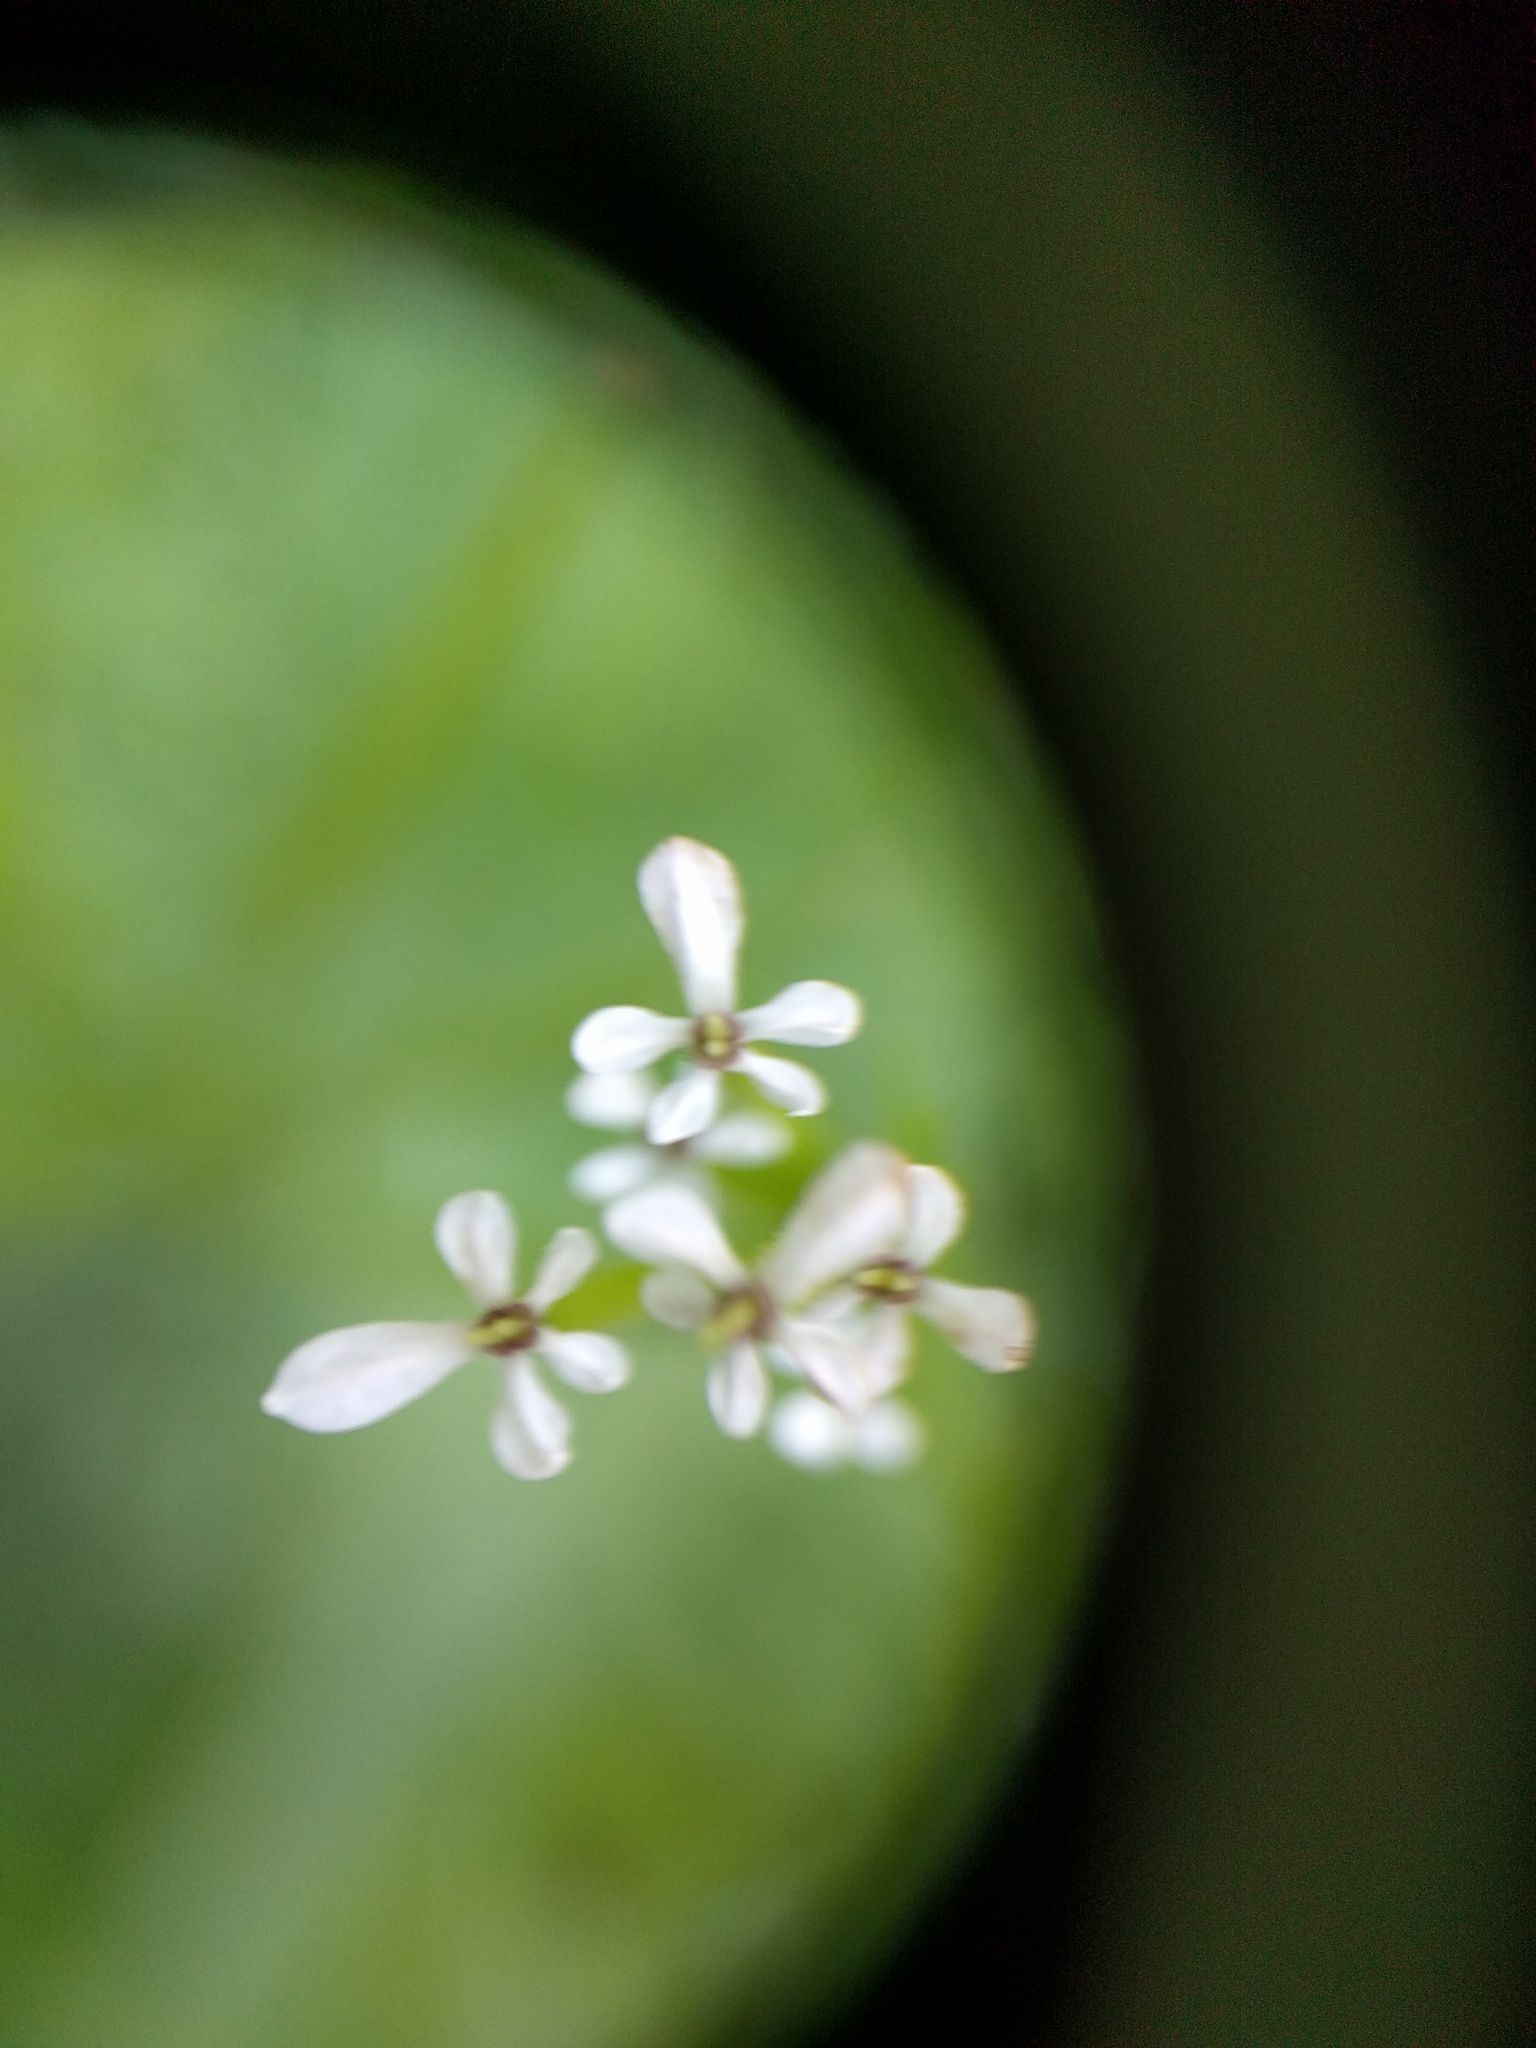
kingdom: Plantae
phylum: Tracheophyta
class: Magnoliopsida
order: Apiales
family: Apiaceae
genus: Scandix
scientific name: Scandix pecten-veneris
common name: Shepherd's-needle
